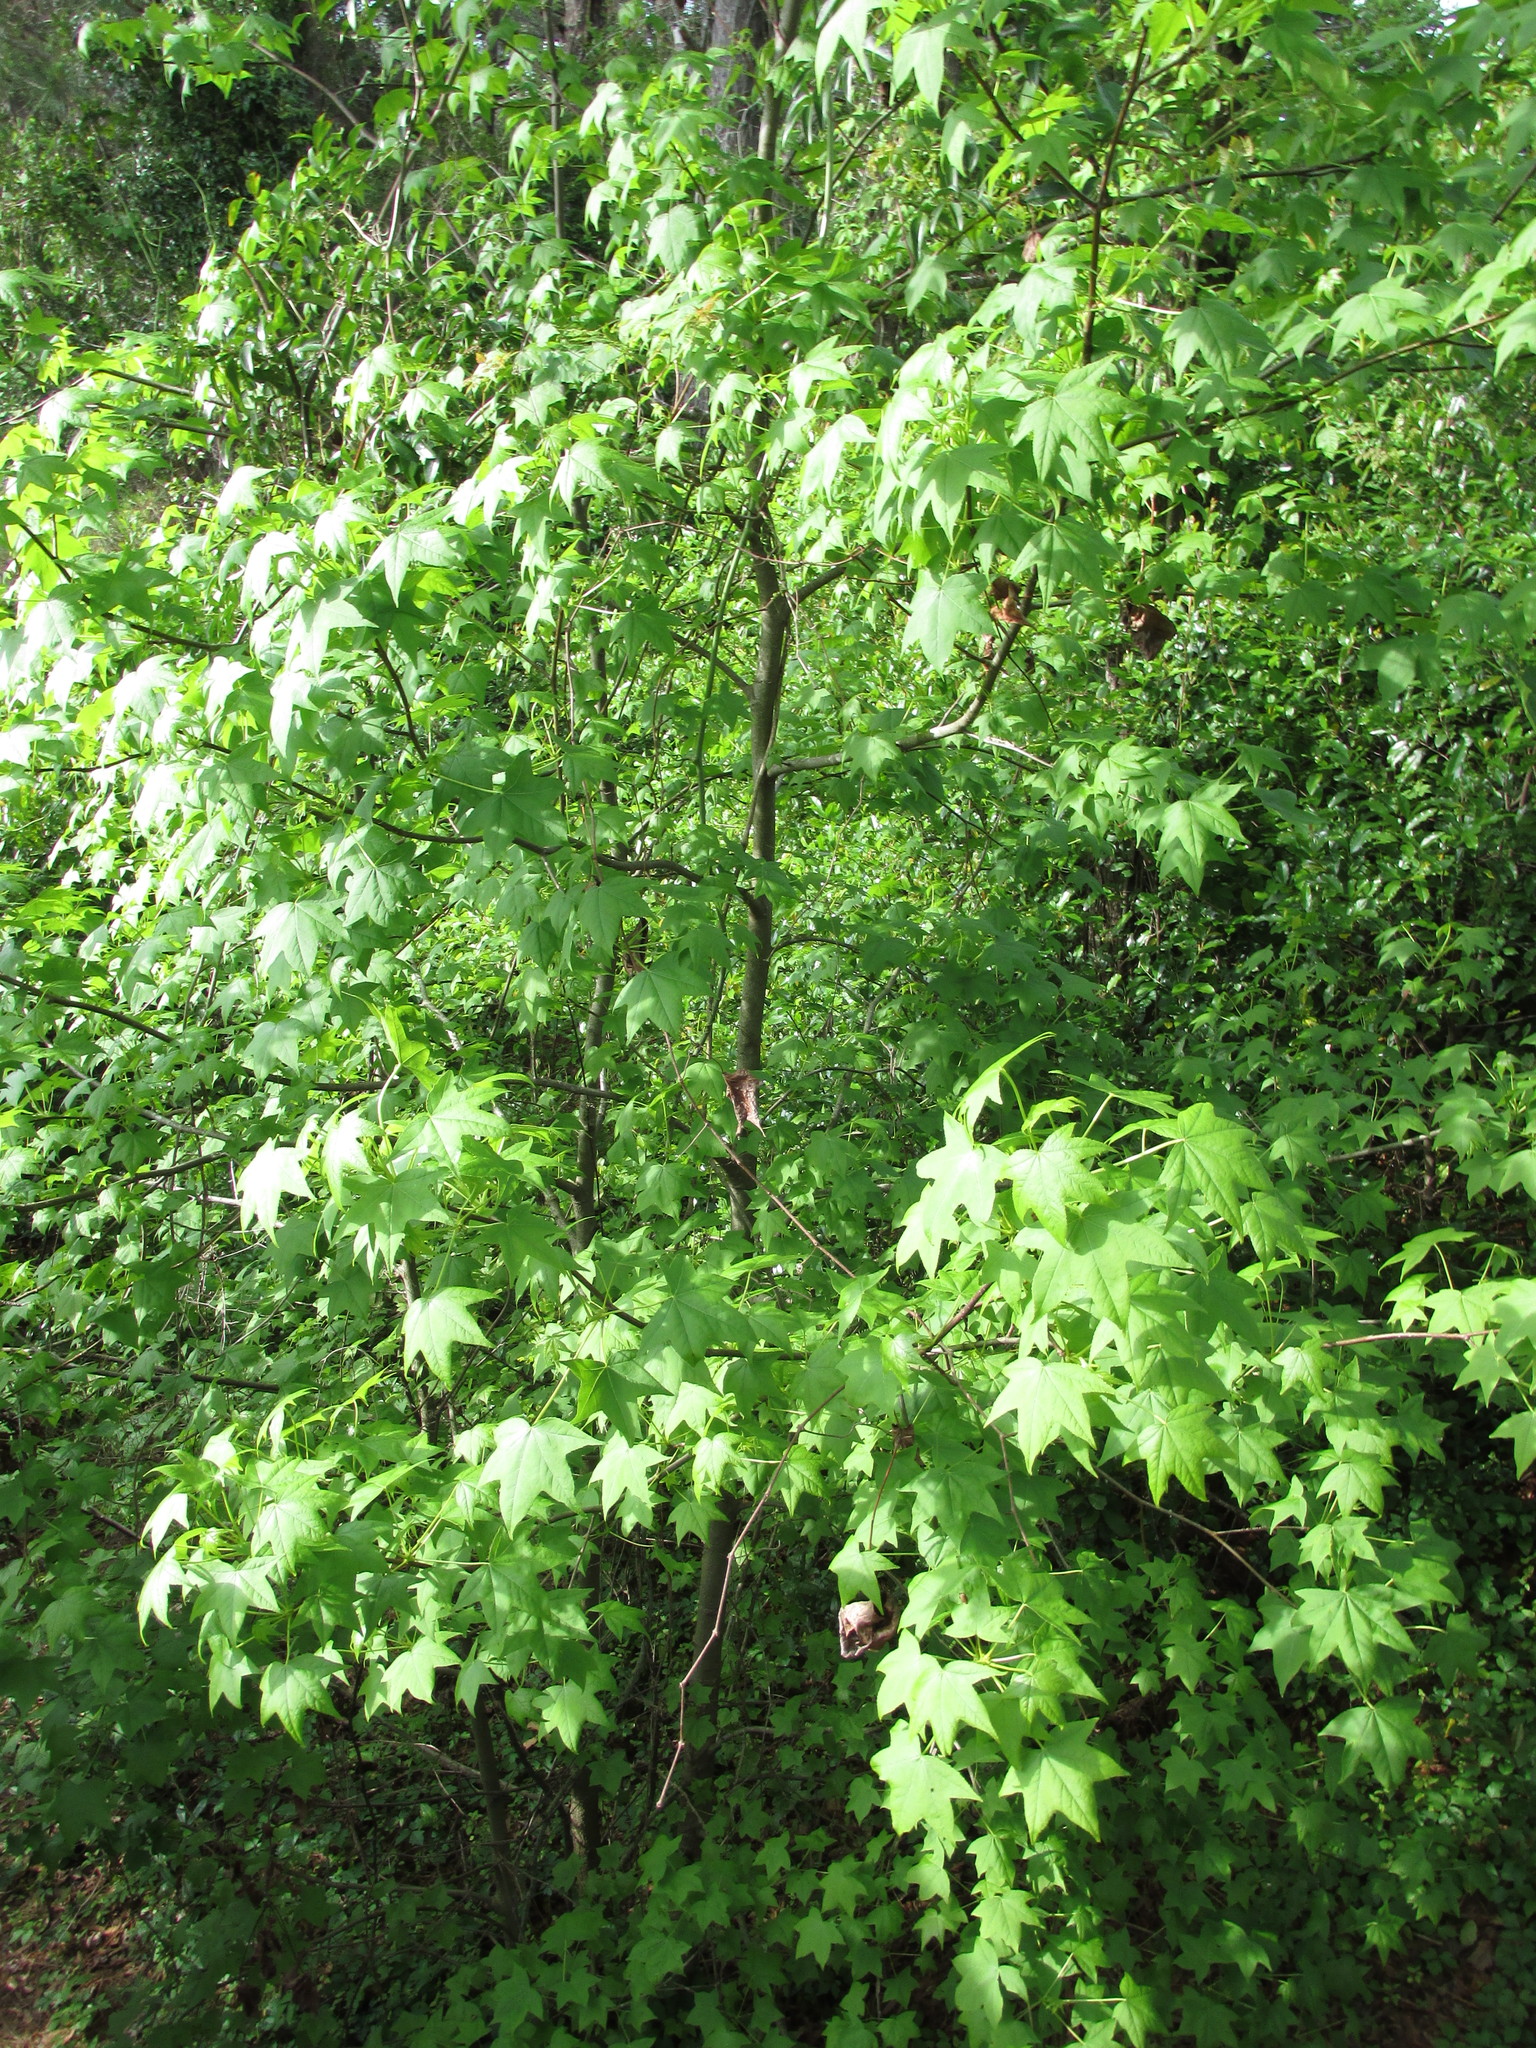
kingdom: Plantae
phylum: Tracheophyta
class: Magnoliopsida
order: Saxifragales
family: Altingiaceae
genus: Liquidambar
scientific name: Liquidambar styraciflua
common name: Sweet gum
